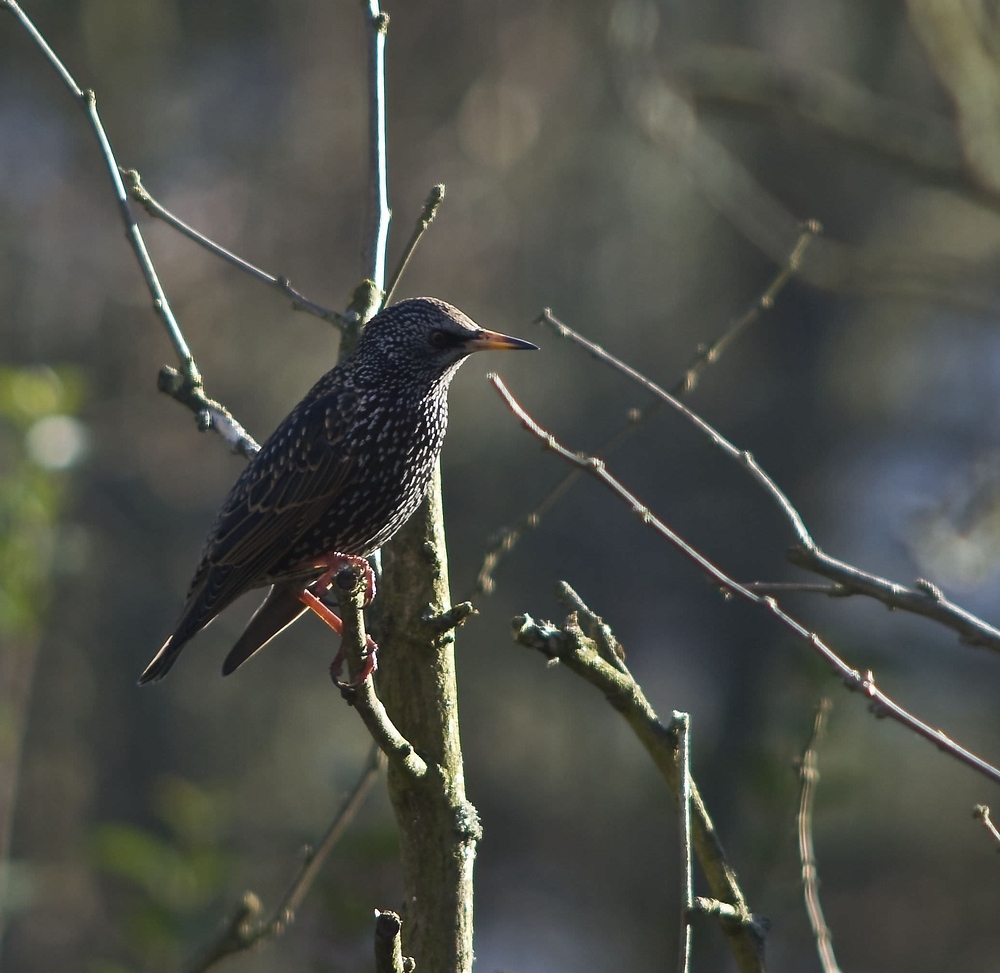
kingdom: Animalia
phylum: Chordata
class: Aves
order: Passeriformes
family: Sturnidae
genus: Sturnus
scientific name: Sturnus vulgaris
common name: Common starling
